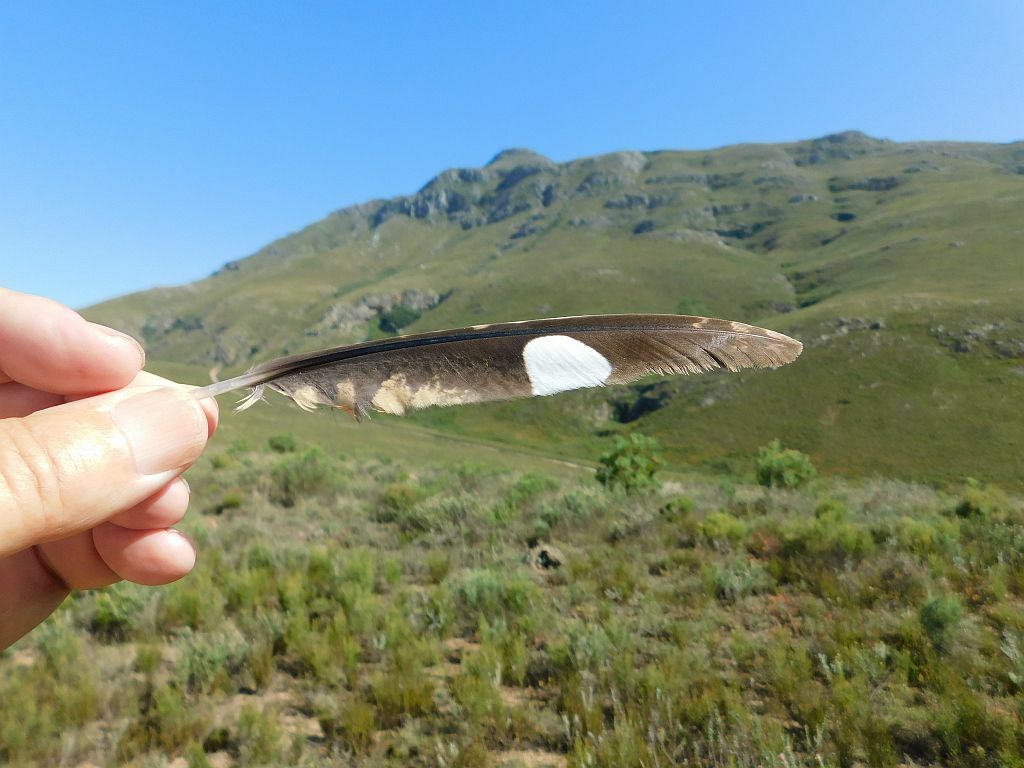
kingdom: Animalia
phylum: Chordata
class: Aves
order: Caprimulgiformes
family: Caprimulgidae
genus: Caprimulgus
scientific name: Caprimulgus pectoralis
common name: Fiery-necked nightjar
